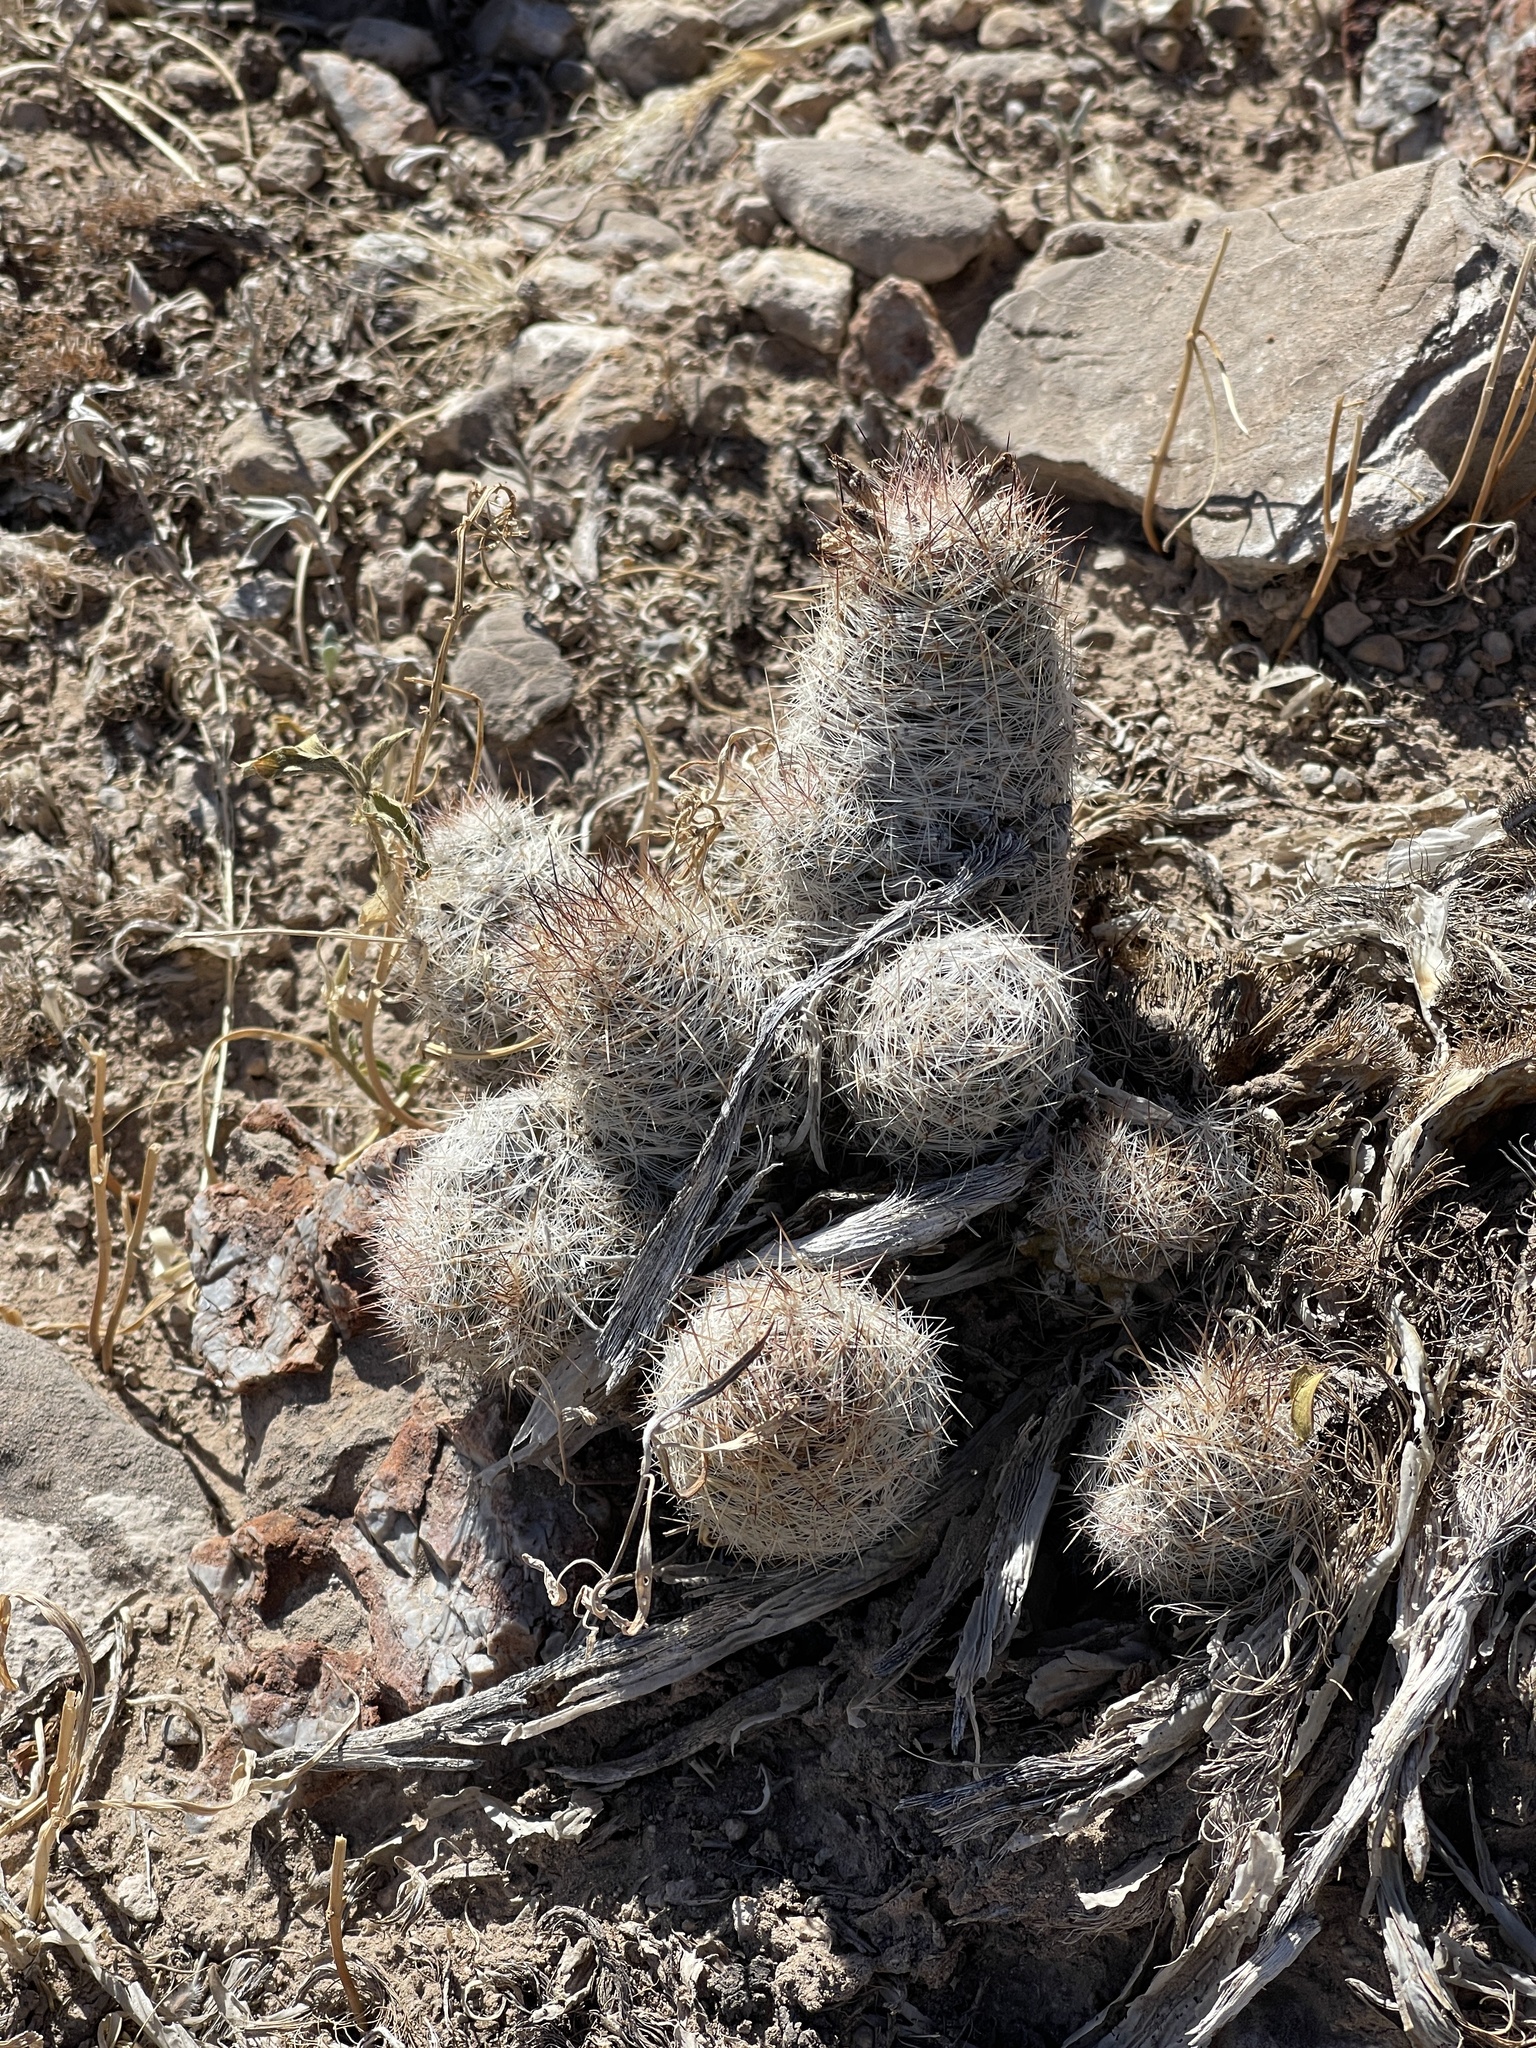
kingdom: Plantae
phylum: Tracheophyta
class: Magnoliopsida
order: Caryophyllales
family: Cactaceae
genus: Pelecyphora
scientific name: Pelecyphora tuberculosa
